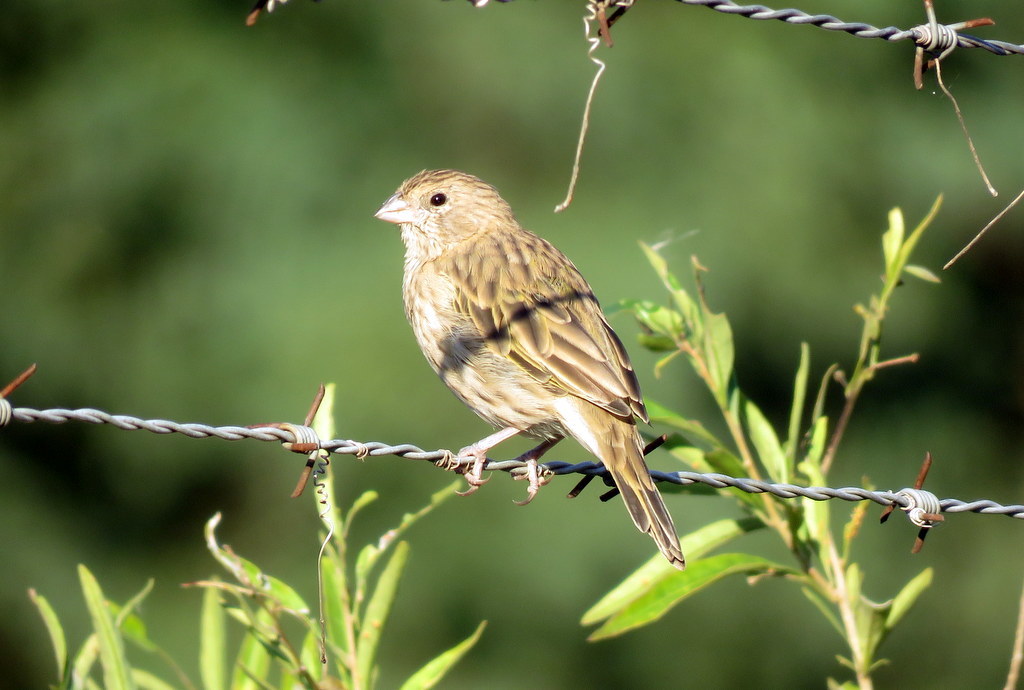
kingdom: Animalia
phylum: Chordata
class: Aves
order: Passeriformes
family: Thraupidae
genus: Sicalis
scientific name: Sicalis flaveola
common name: Saffron finch
